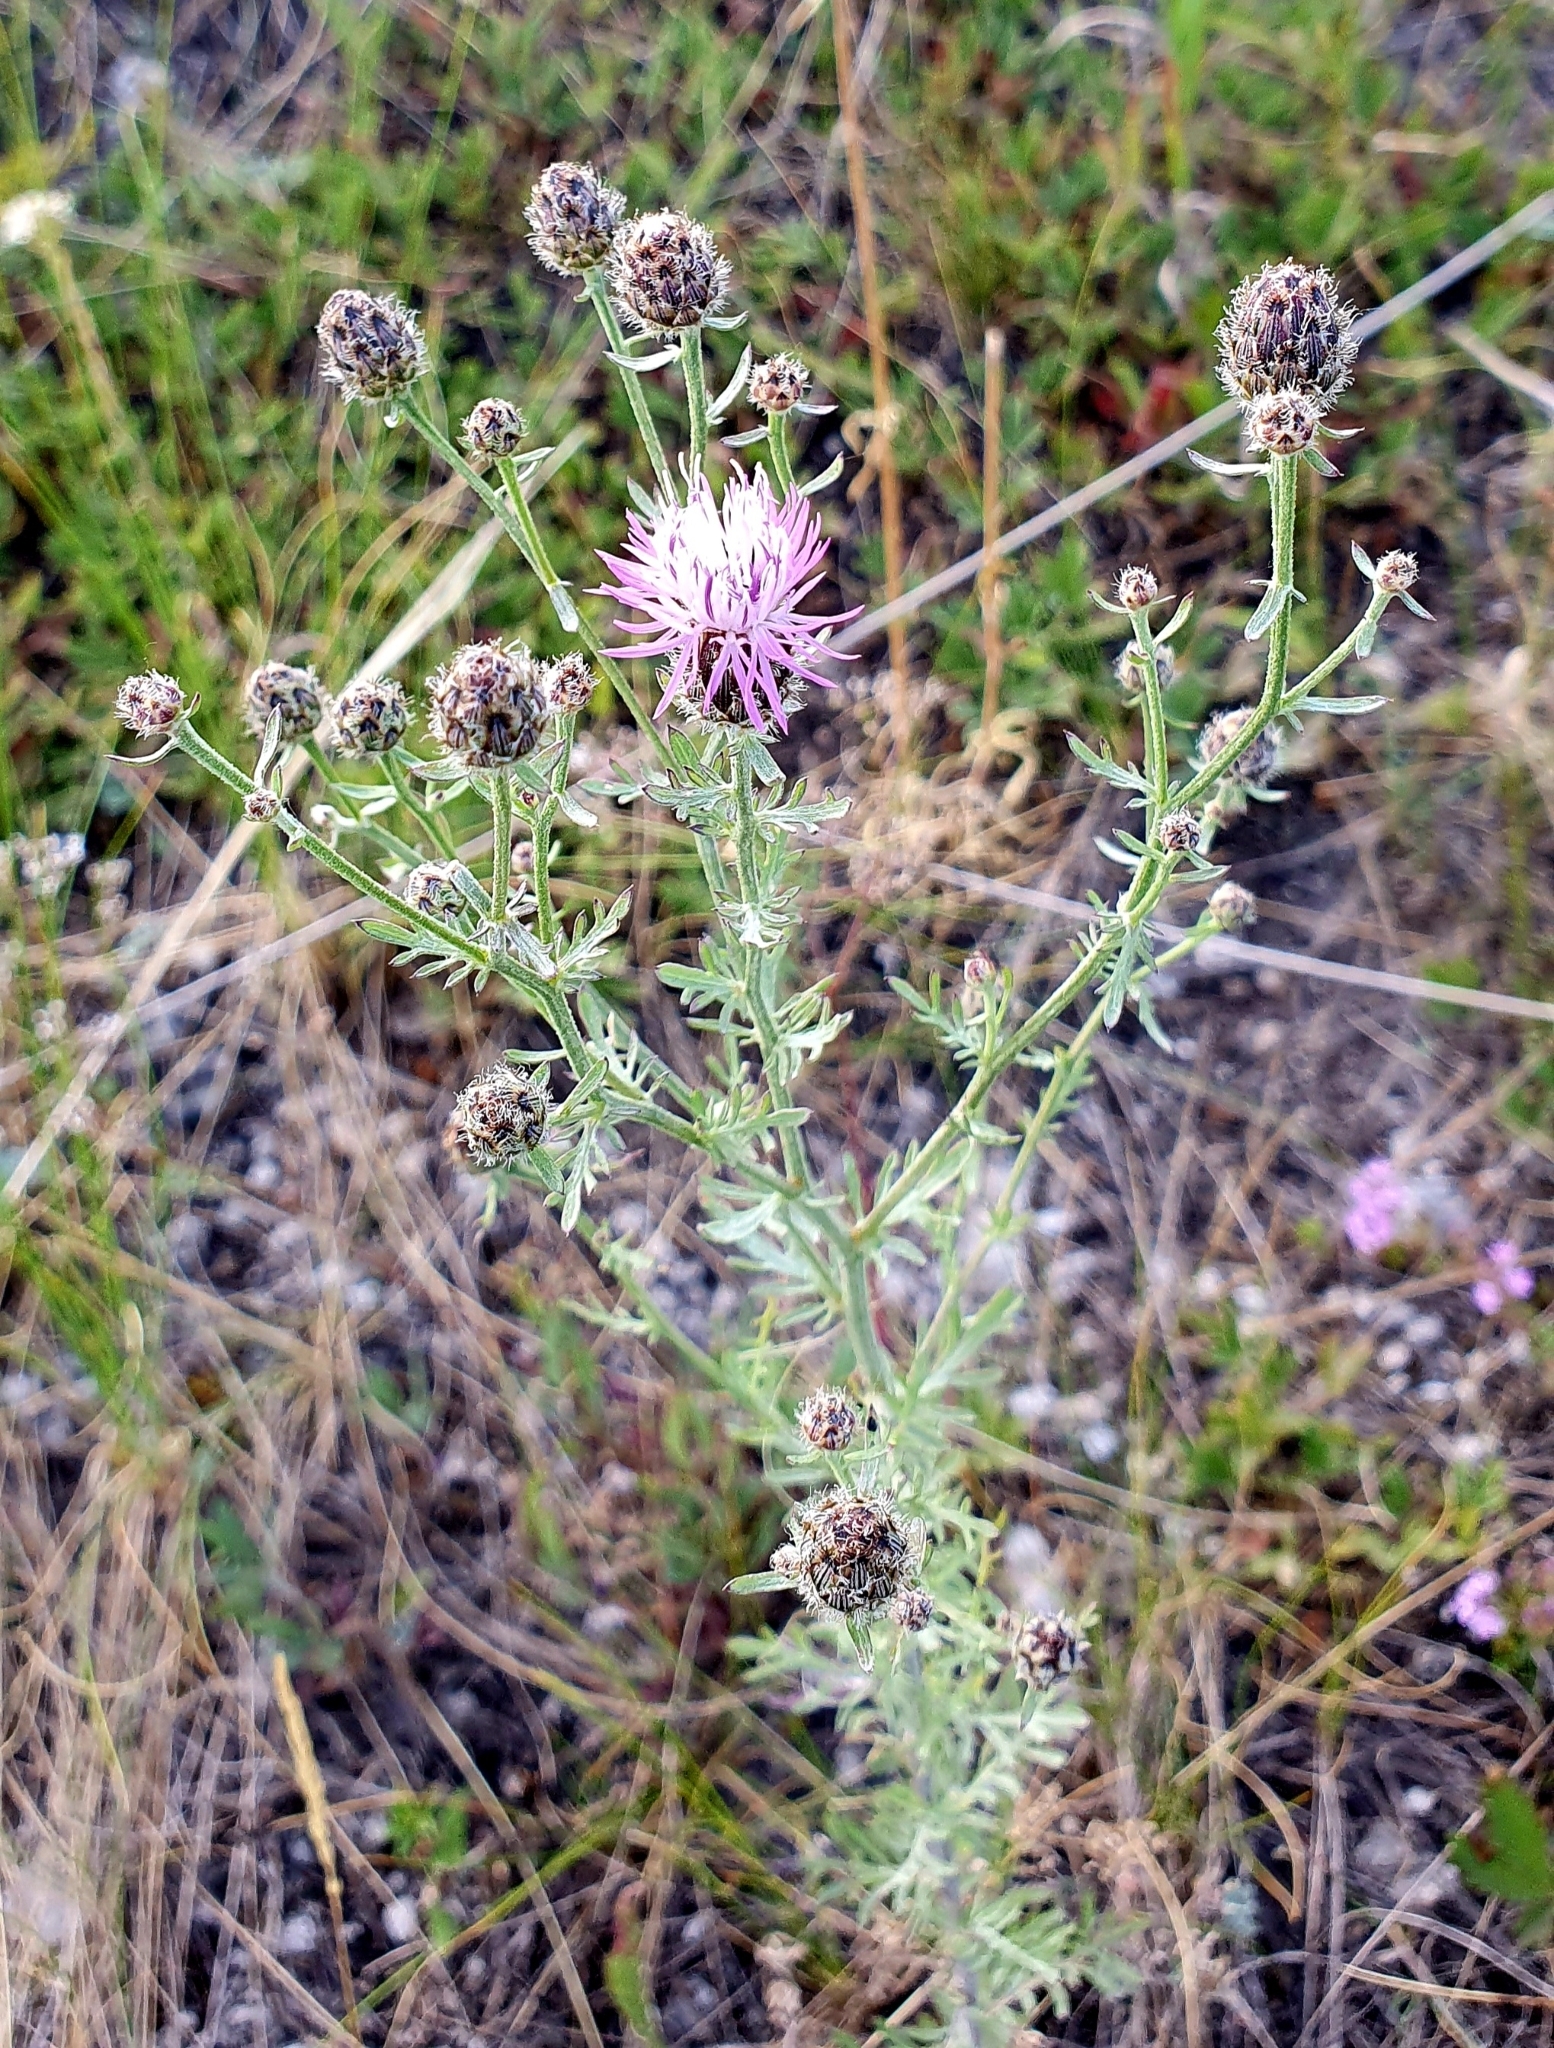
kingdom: Plantae
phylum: Tracheophyta
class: Magnoliopsida
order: Asterales
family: Asteraceae
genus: Centaurea
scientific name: Centaurea stoebe
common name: Spotted knapweed
